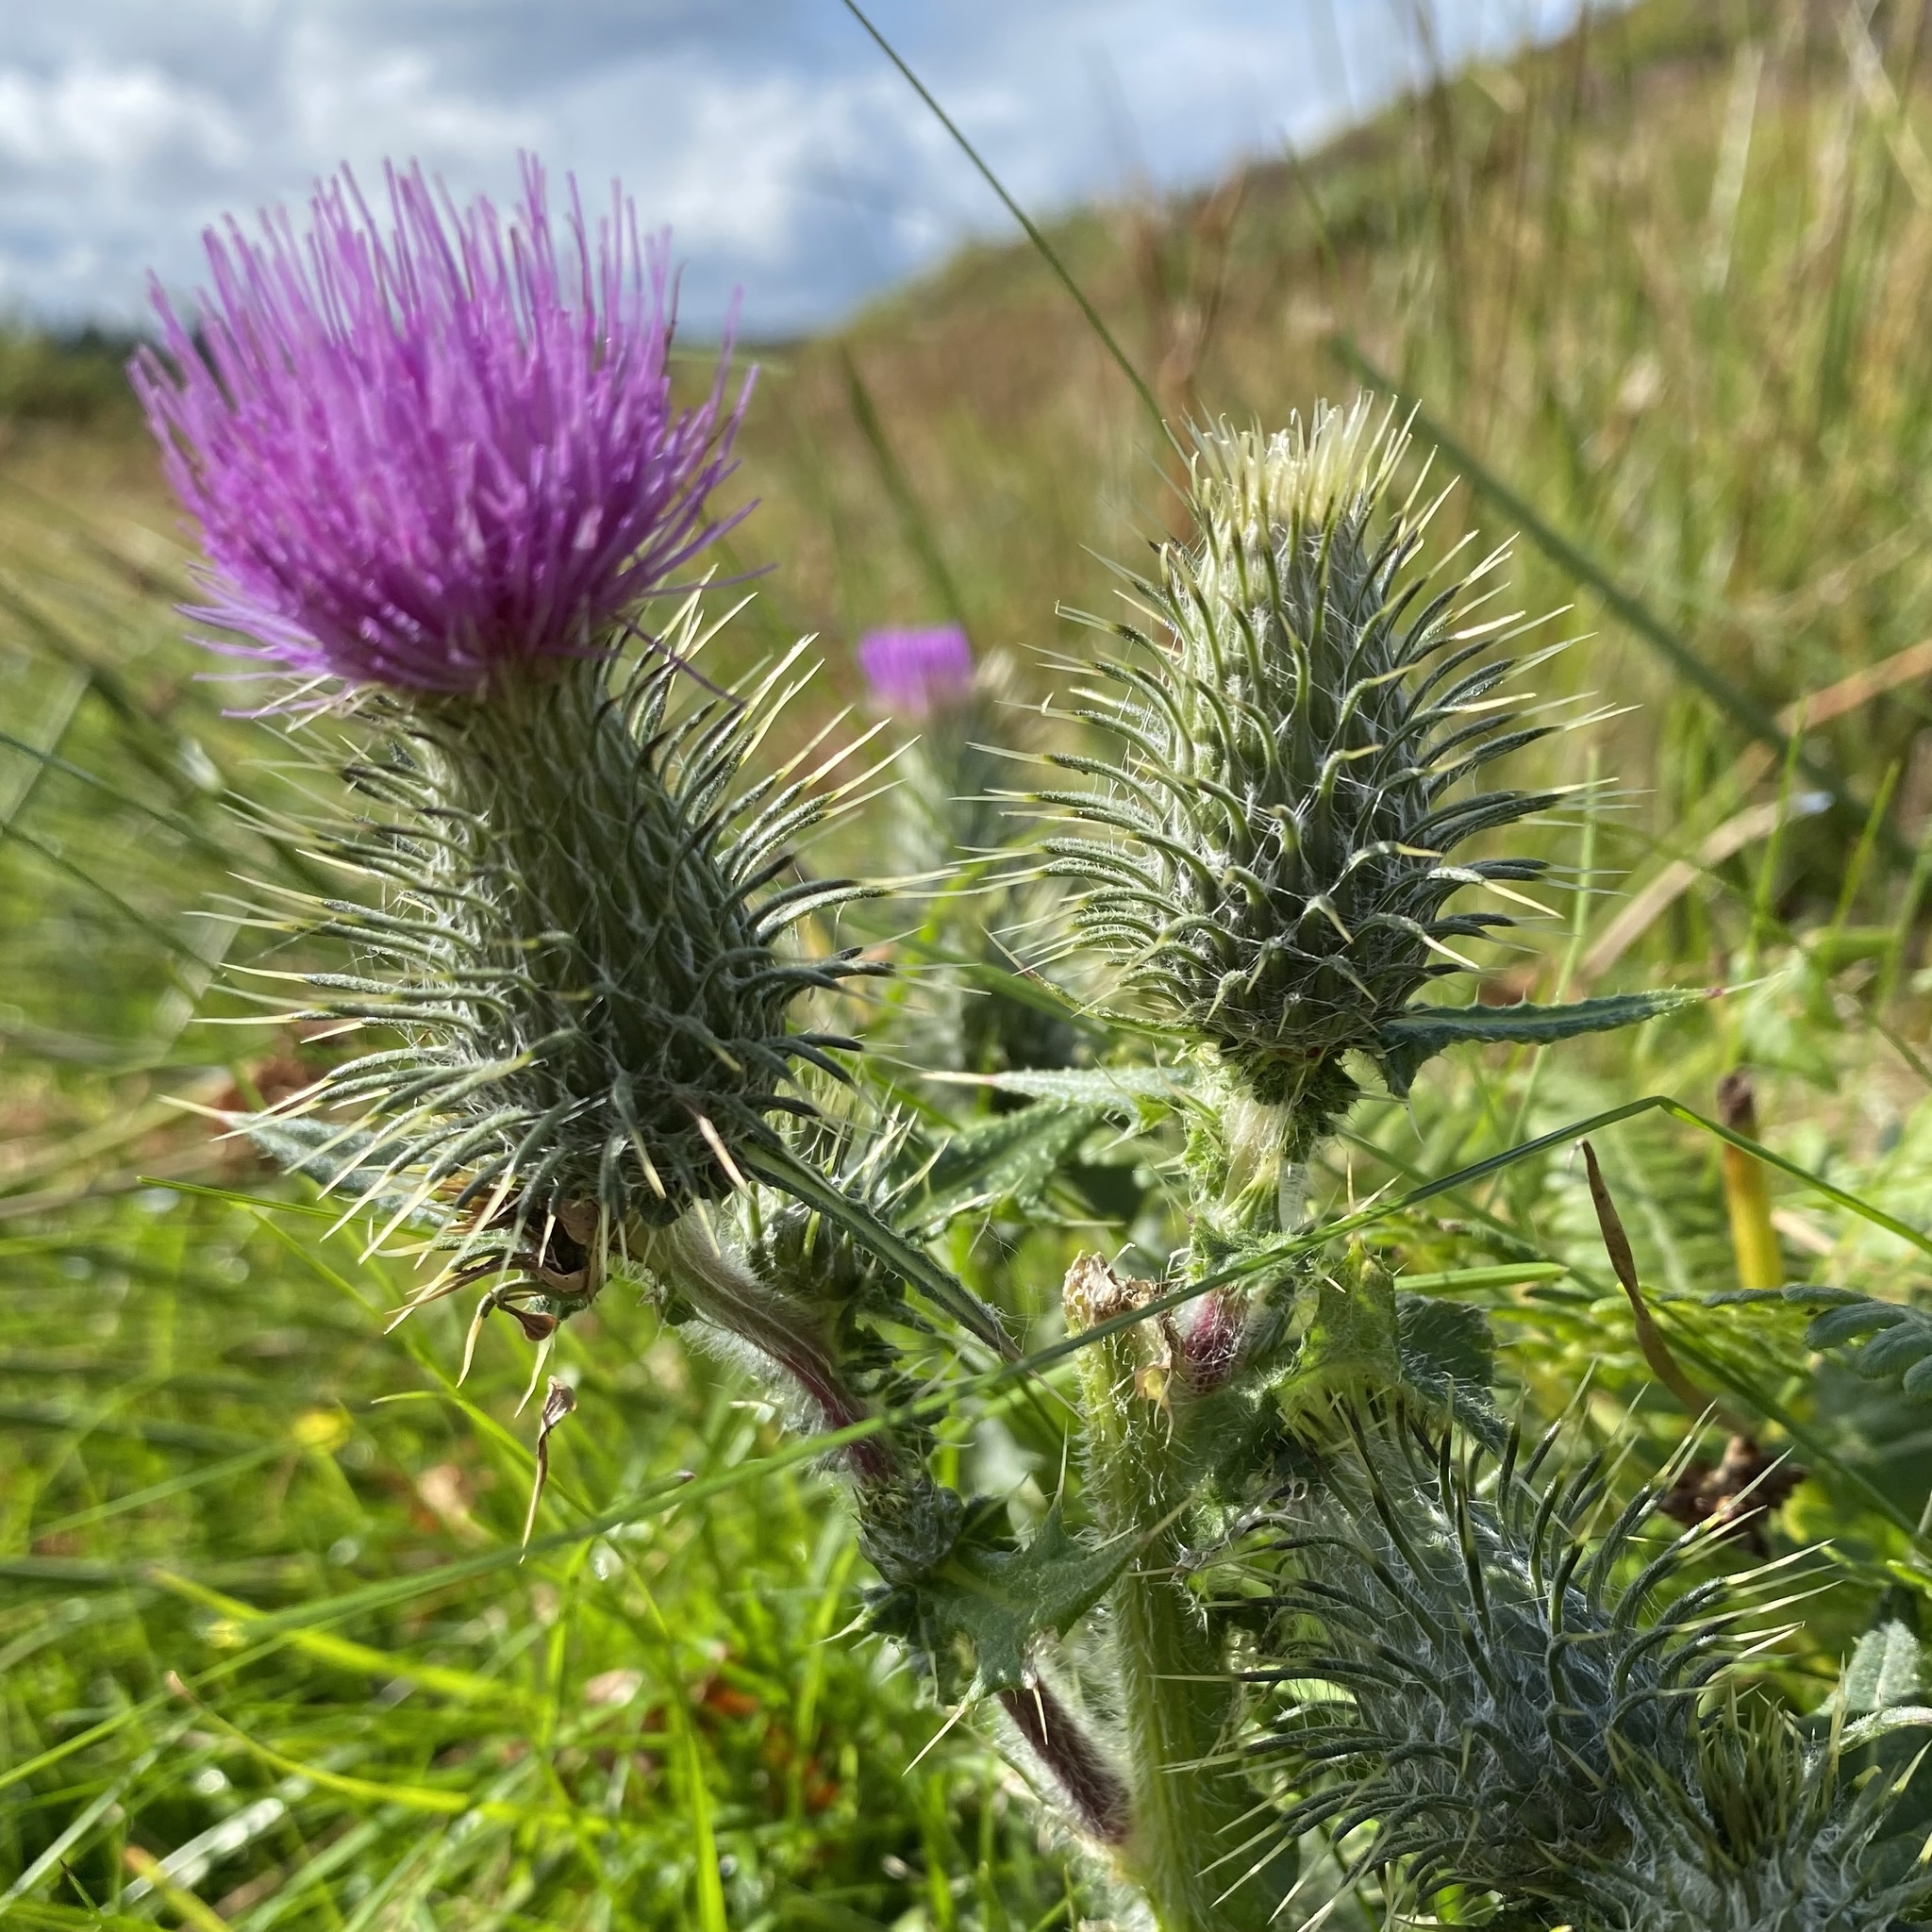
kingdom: Plantae
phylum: Tracheophyta
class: Magnoliopsida
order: Asterales
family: Asteraceae
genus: Cirsium
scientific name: Cirsium vulgare
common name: Bull thistle
